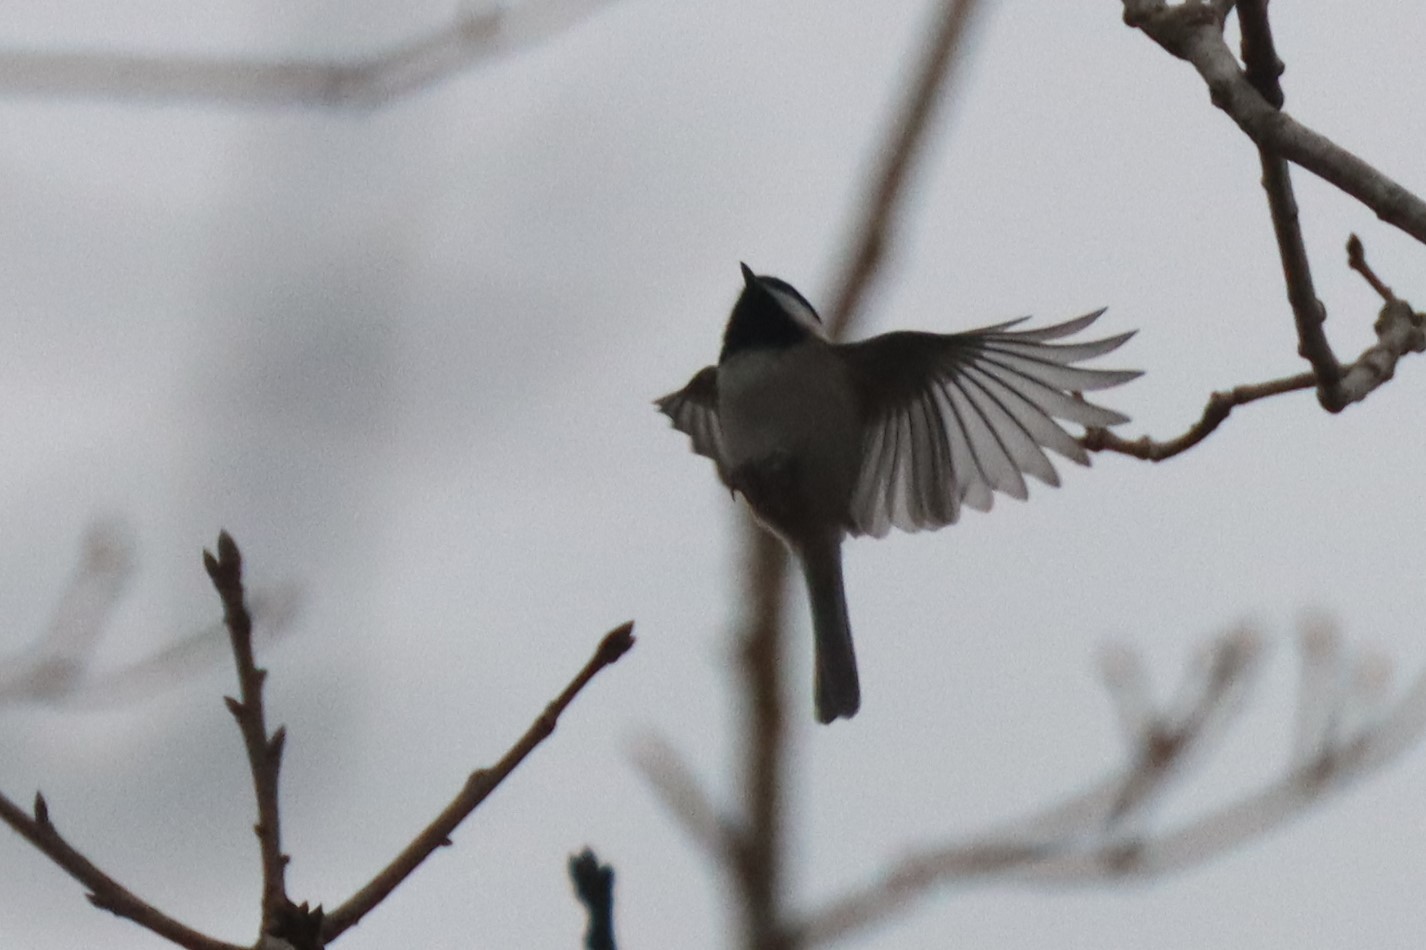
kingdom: Animalia
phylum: Chordata
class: Aves
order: Passeriformes
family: Paridae
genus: Poecile
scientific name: Poecile carolinensis
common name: Carolina chickadee
